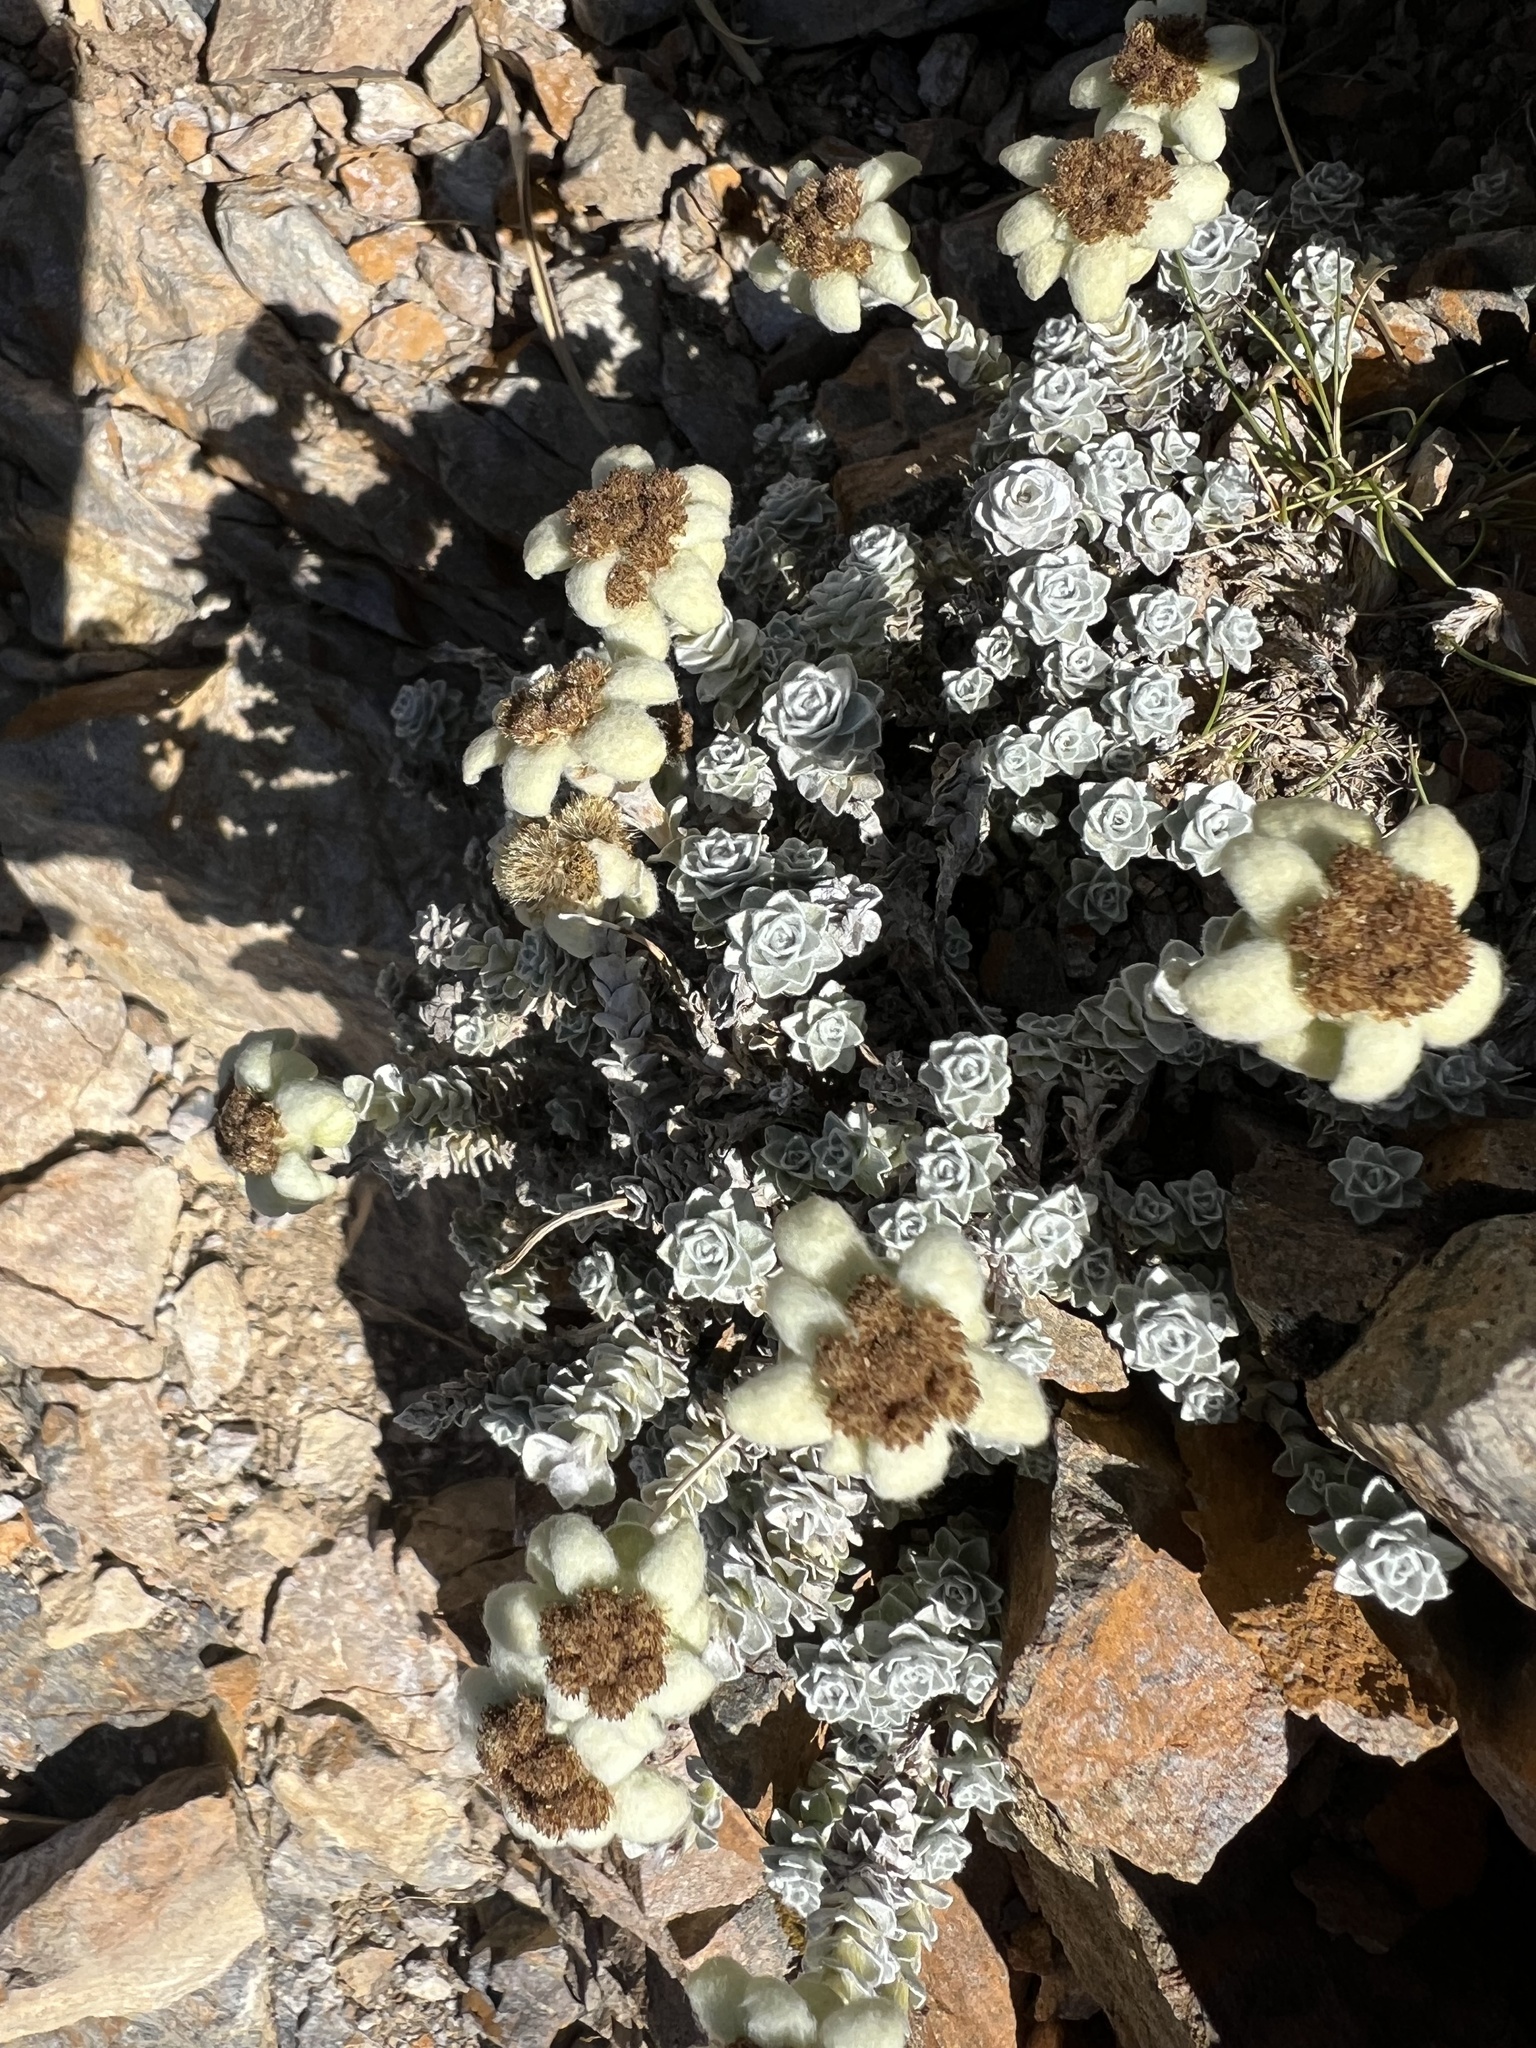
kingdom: Plantae
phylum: Tracheophyta
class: Magnoliopsida
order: Asterales
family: Asteraceae
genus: Leucogenes
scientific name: Leucogenes grandiceps
